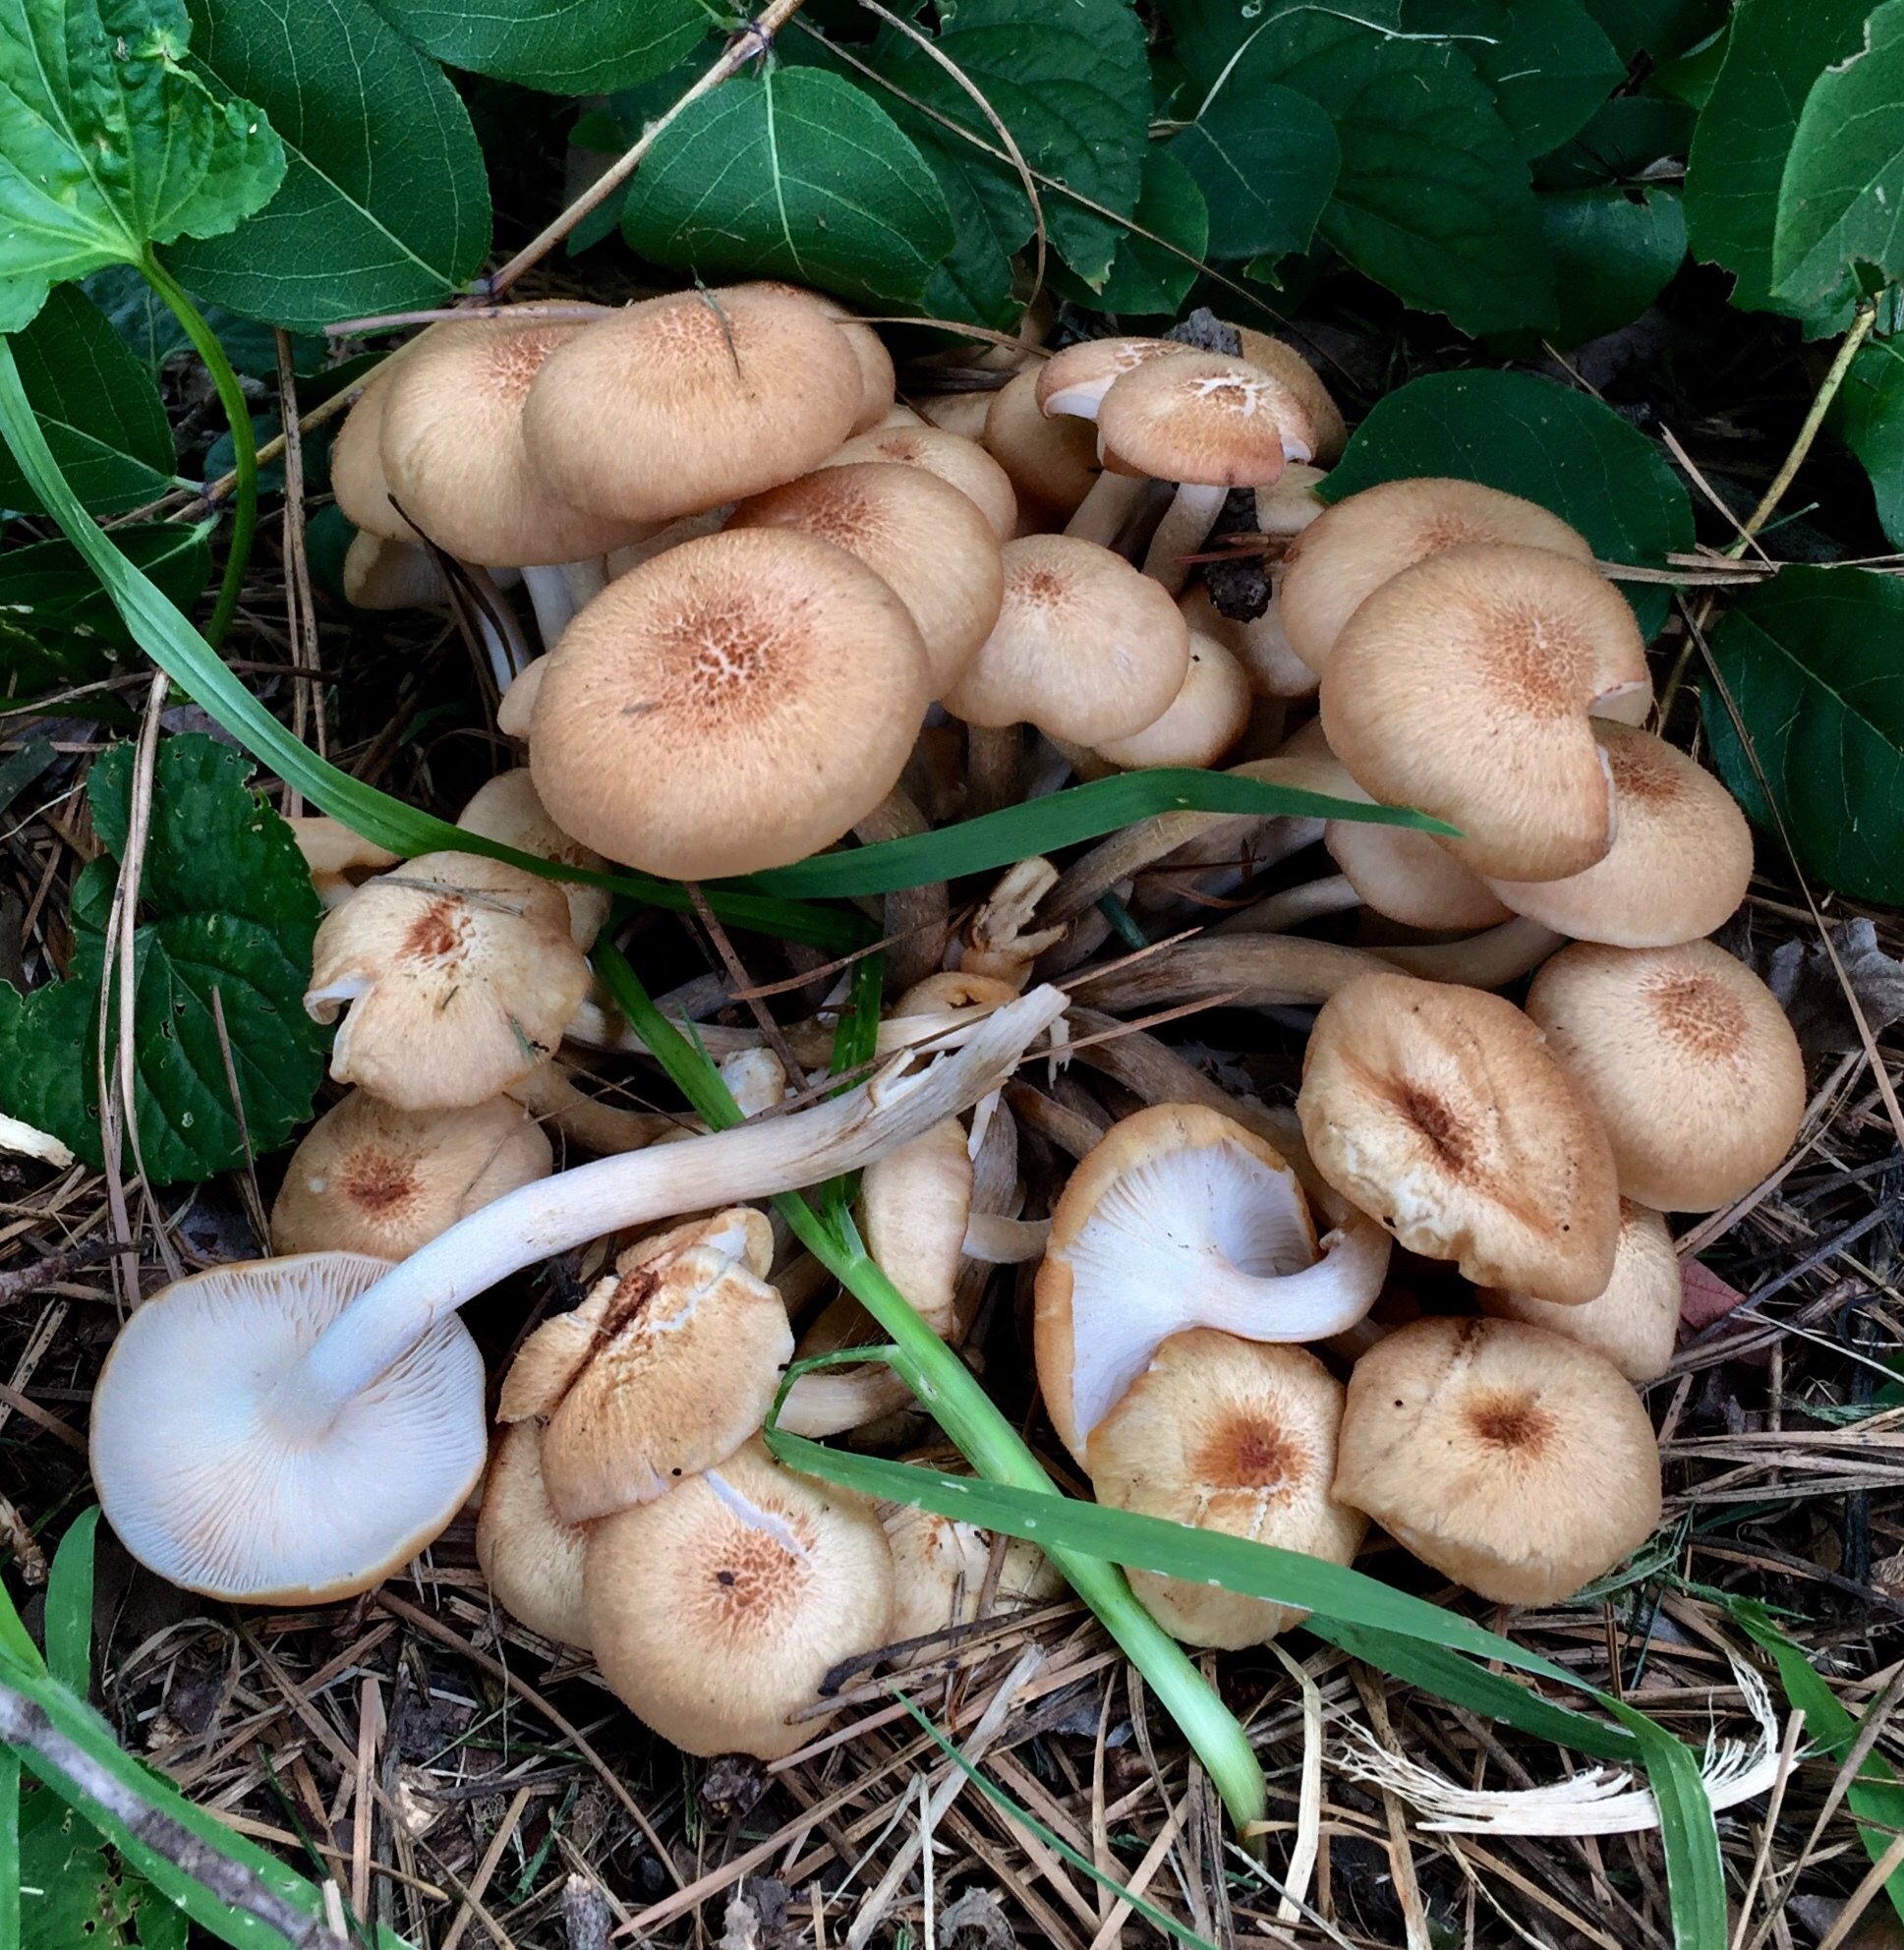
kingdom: Fungi
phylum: Basidiomycota
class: Agaricomycetes
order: Agaricales
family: Physalacriaceae
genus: Desarmillaria
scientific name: Desarmillaria caespitosa
